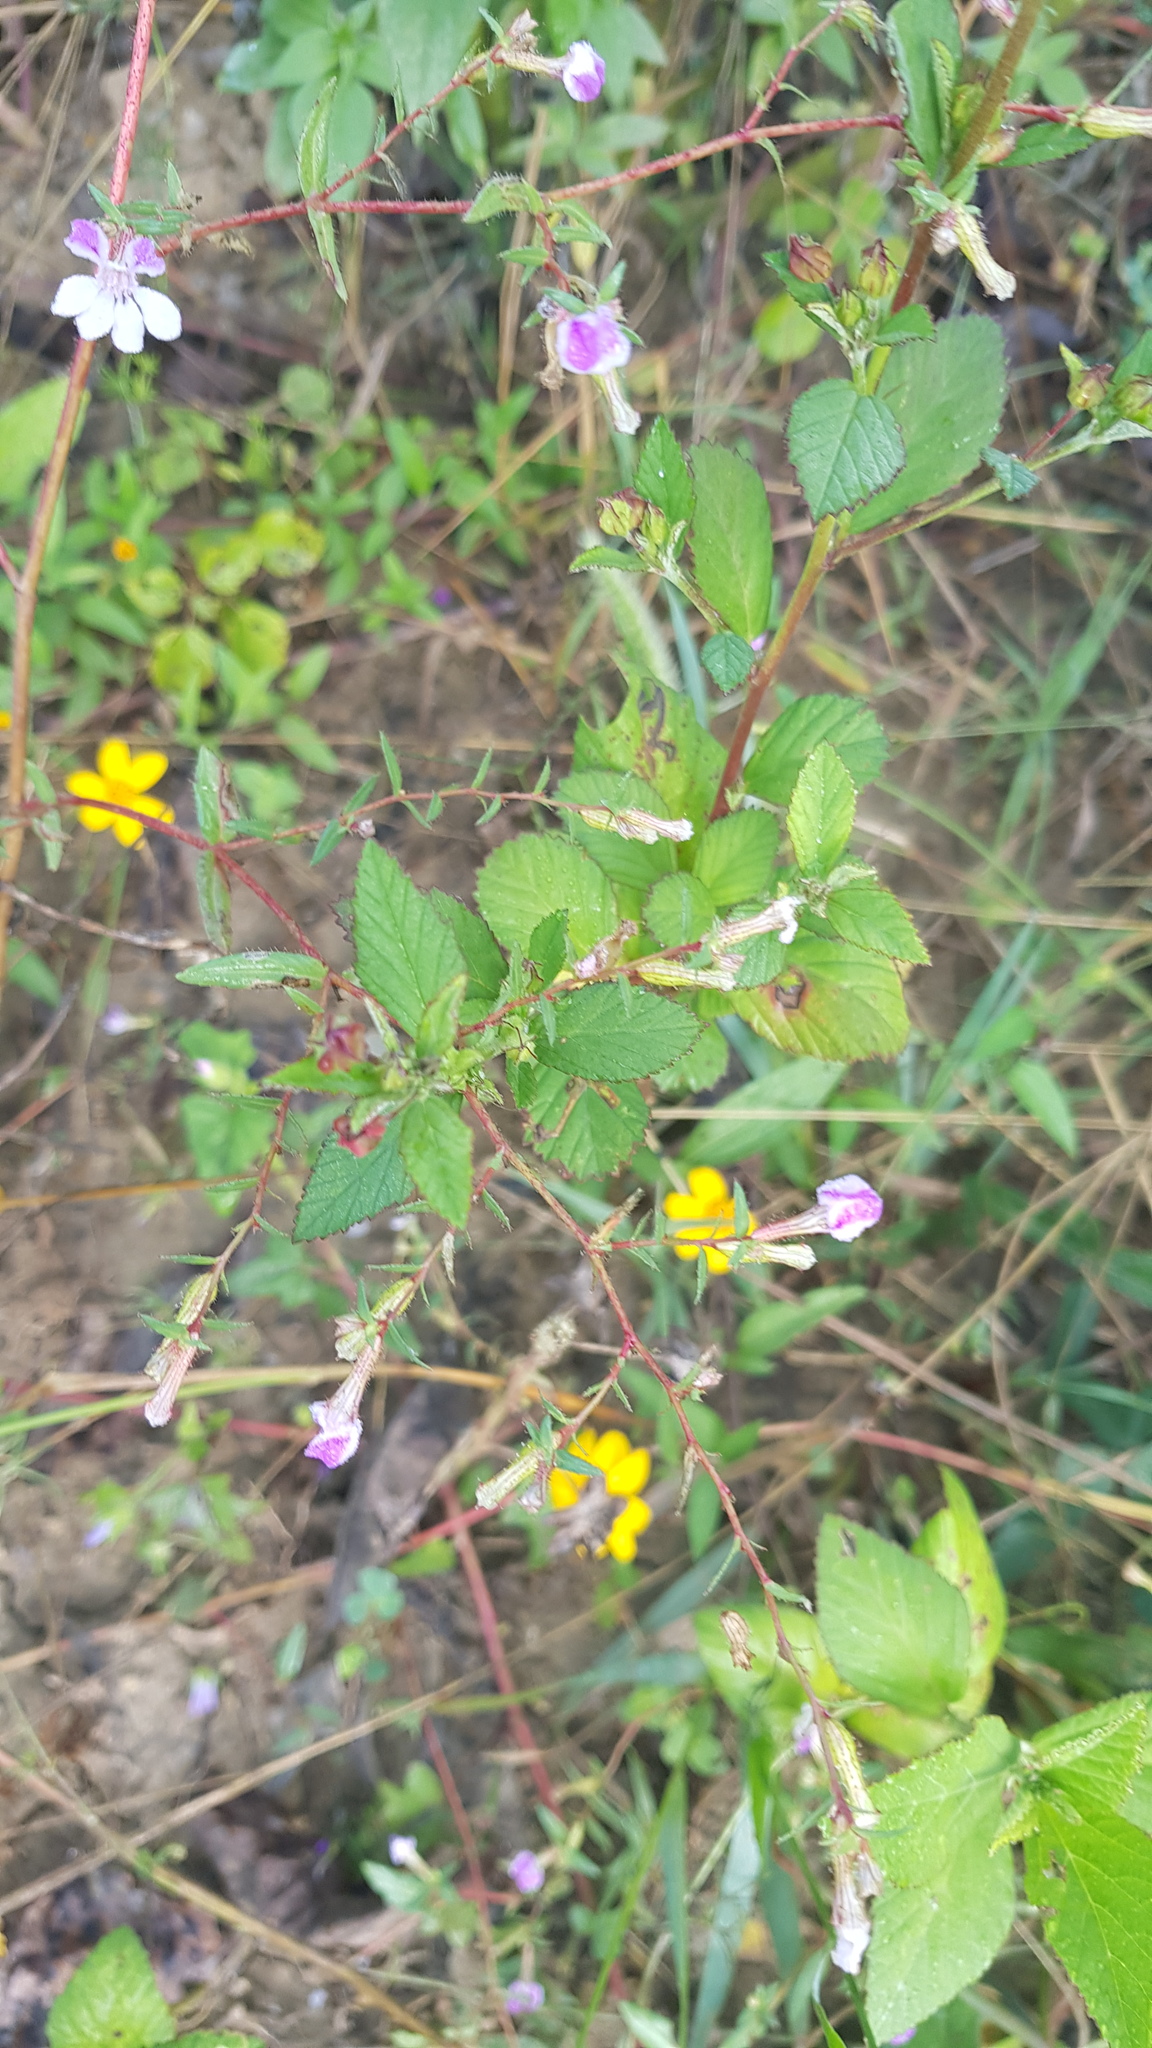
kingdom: Plantae
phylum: Tracheophyta
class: Magnoliopsida
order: Myrtales
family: Lythraceae
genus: Cuphea
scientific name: Cuphea lutea
